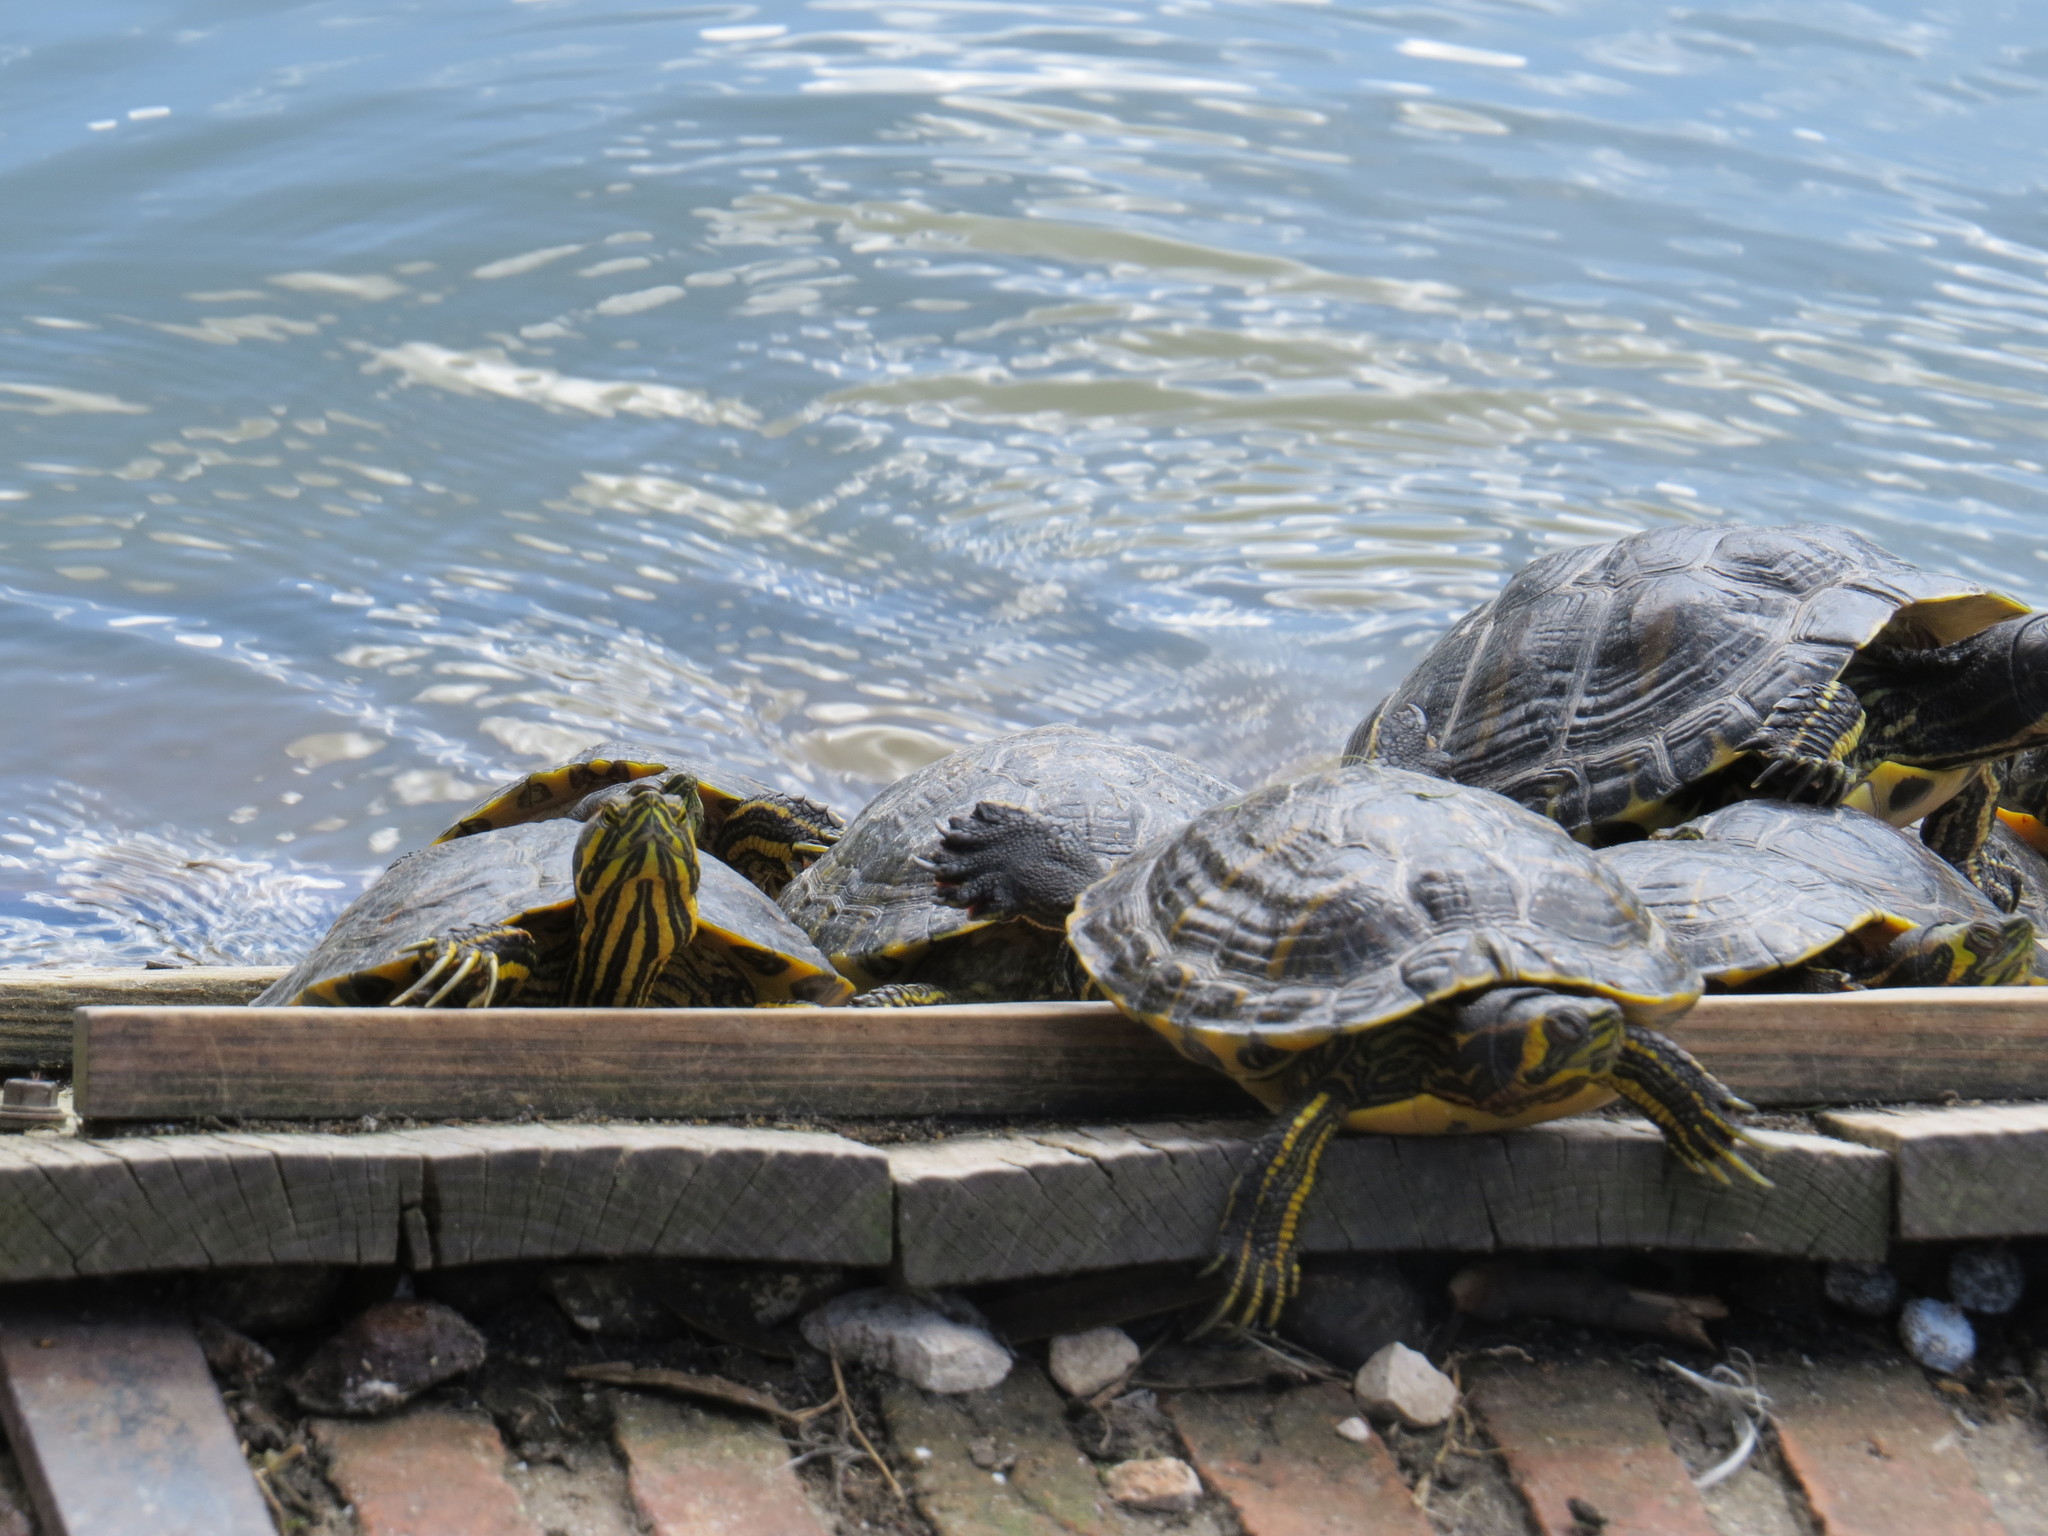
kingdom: Animalia
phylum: Chordata
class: Testudines
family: Emydidae
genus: Trachemys
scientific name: Trachemys scripta
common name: Slider
